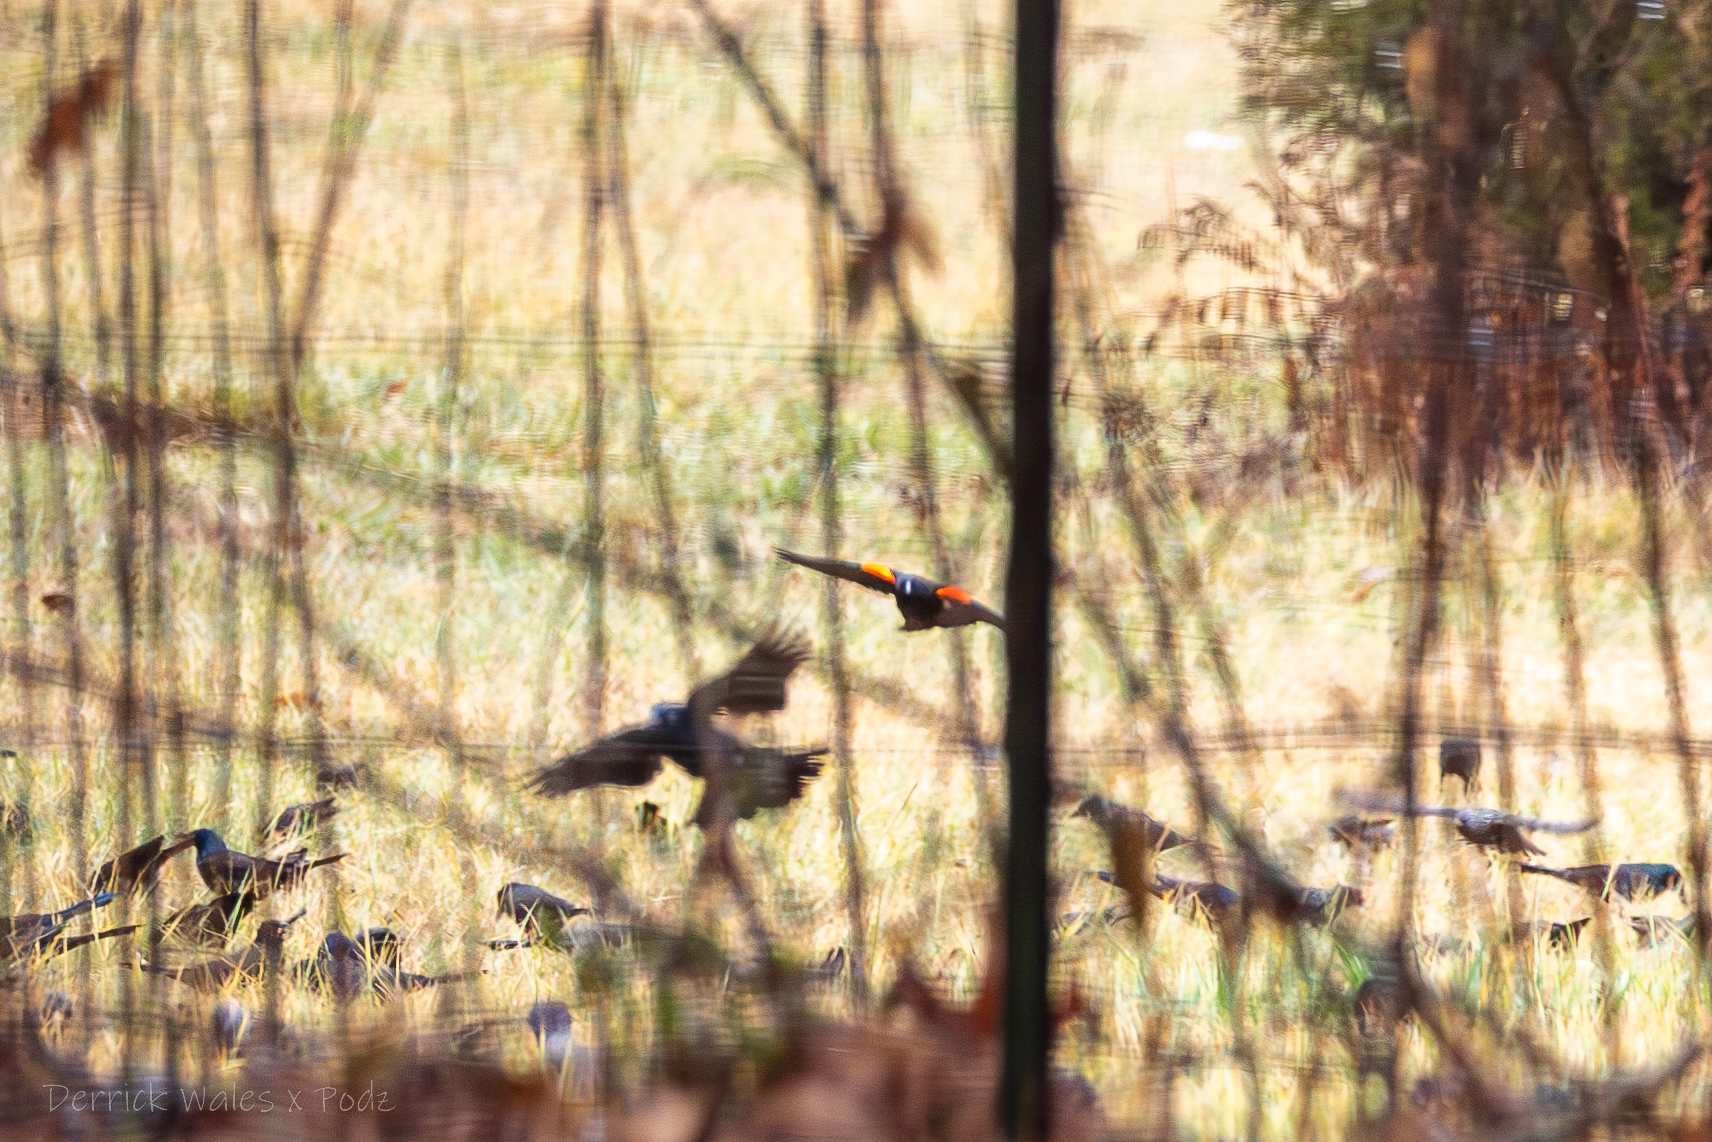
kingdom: Animalia
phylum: Chordata
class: Aves
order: Passeriformes
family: Icteridae
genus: Agelaius
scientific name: Agelaius phoeniceus
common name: Red-winged blackbird
